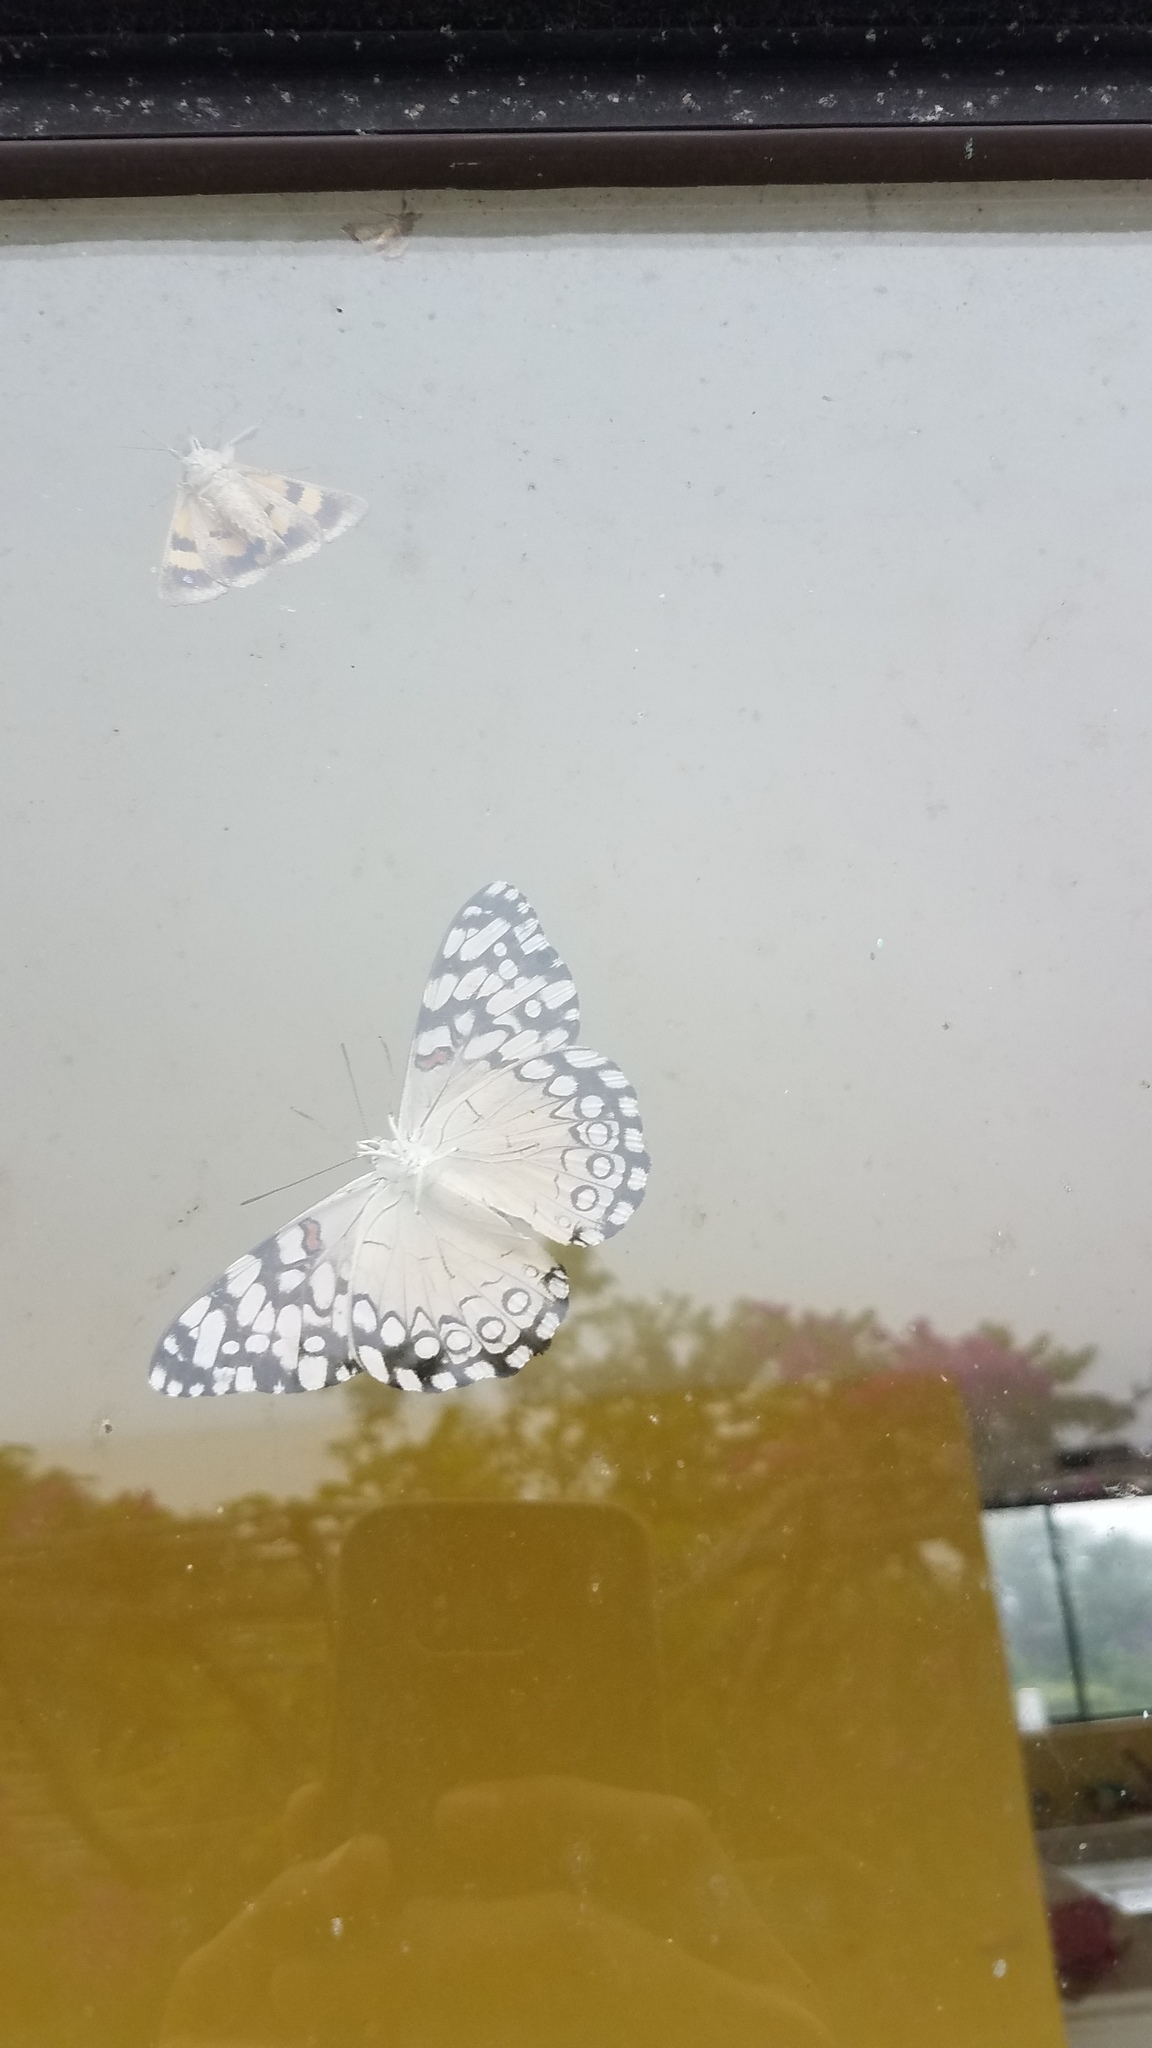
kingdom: Animalia
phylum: Arthropoda
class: Insecta
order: Lepidoptera
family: Nymphalidae
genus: Hamadryas
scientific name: Hamadryas guatemalena
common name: Guatemalan cracker
